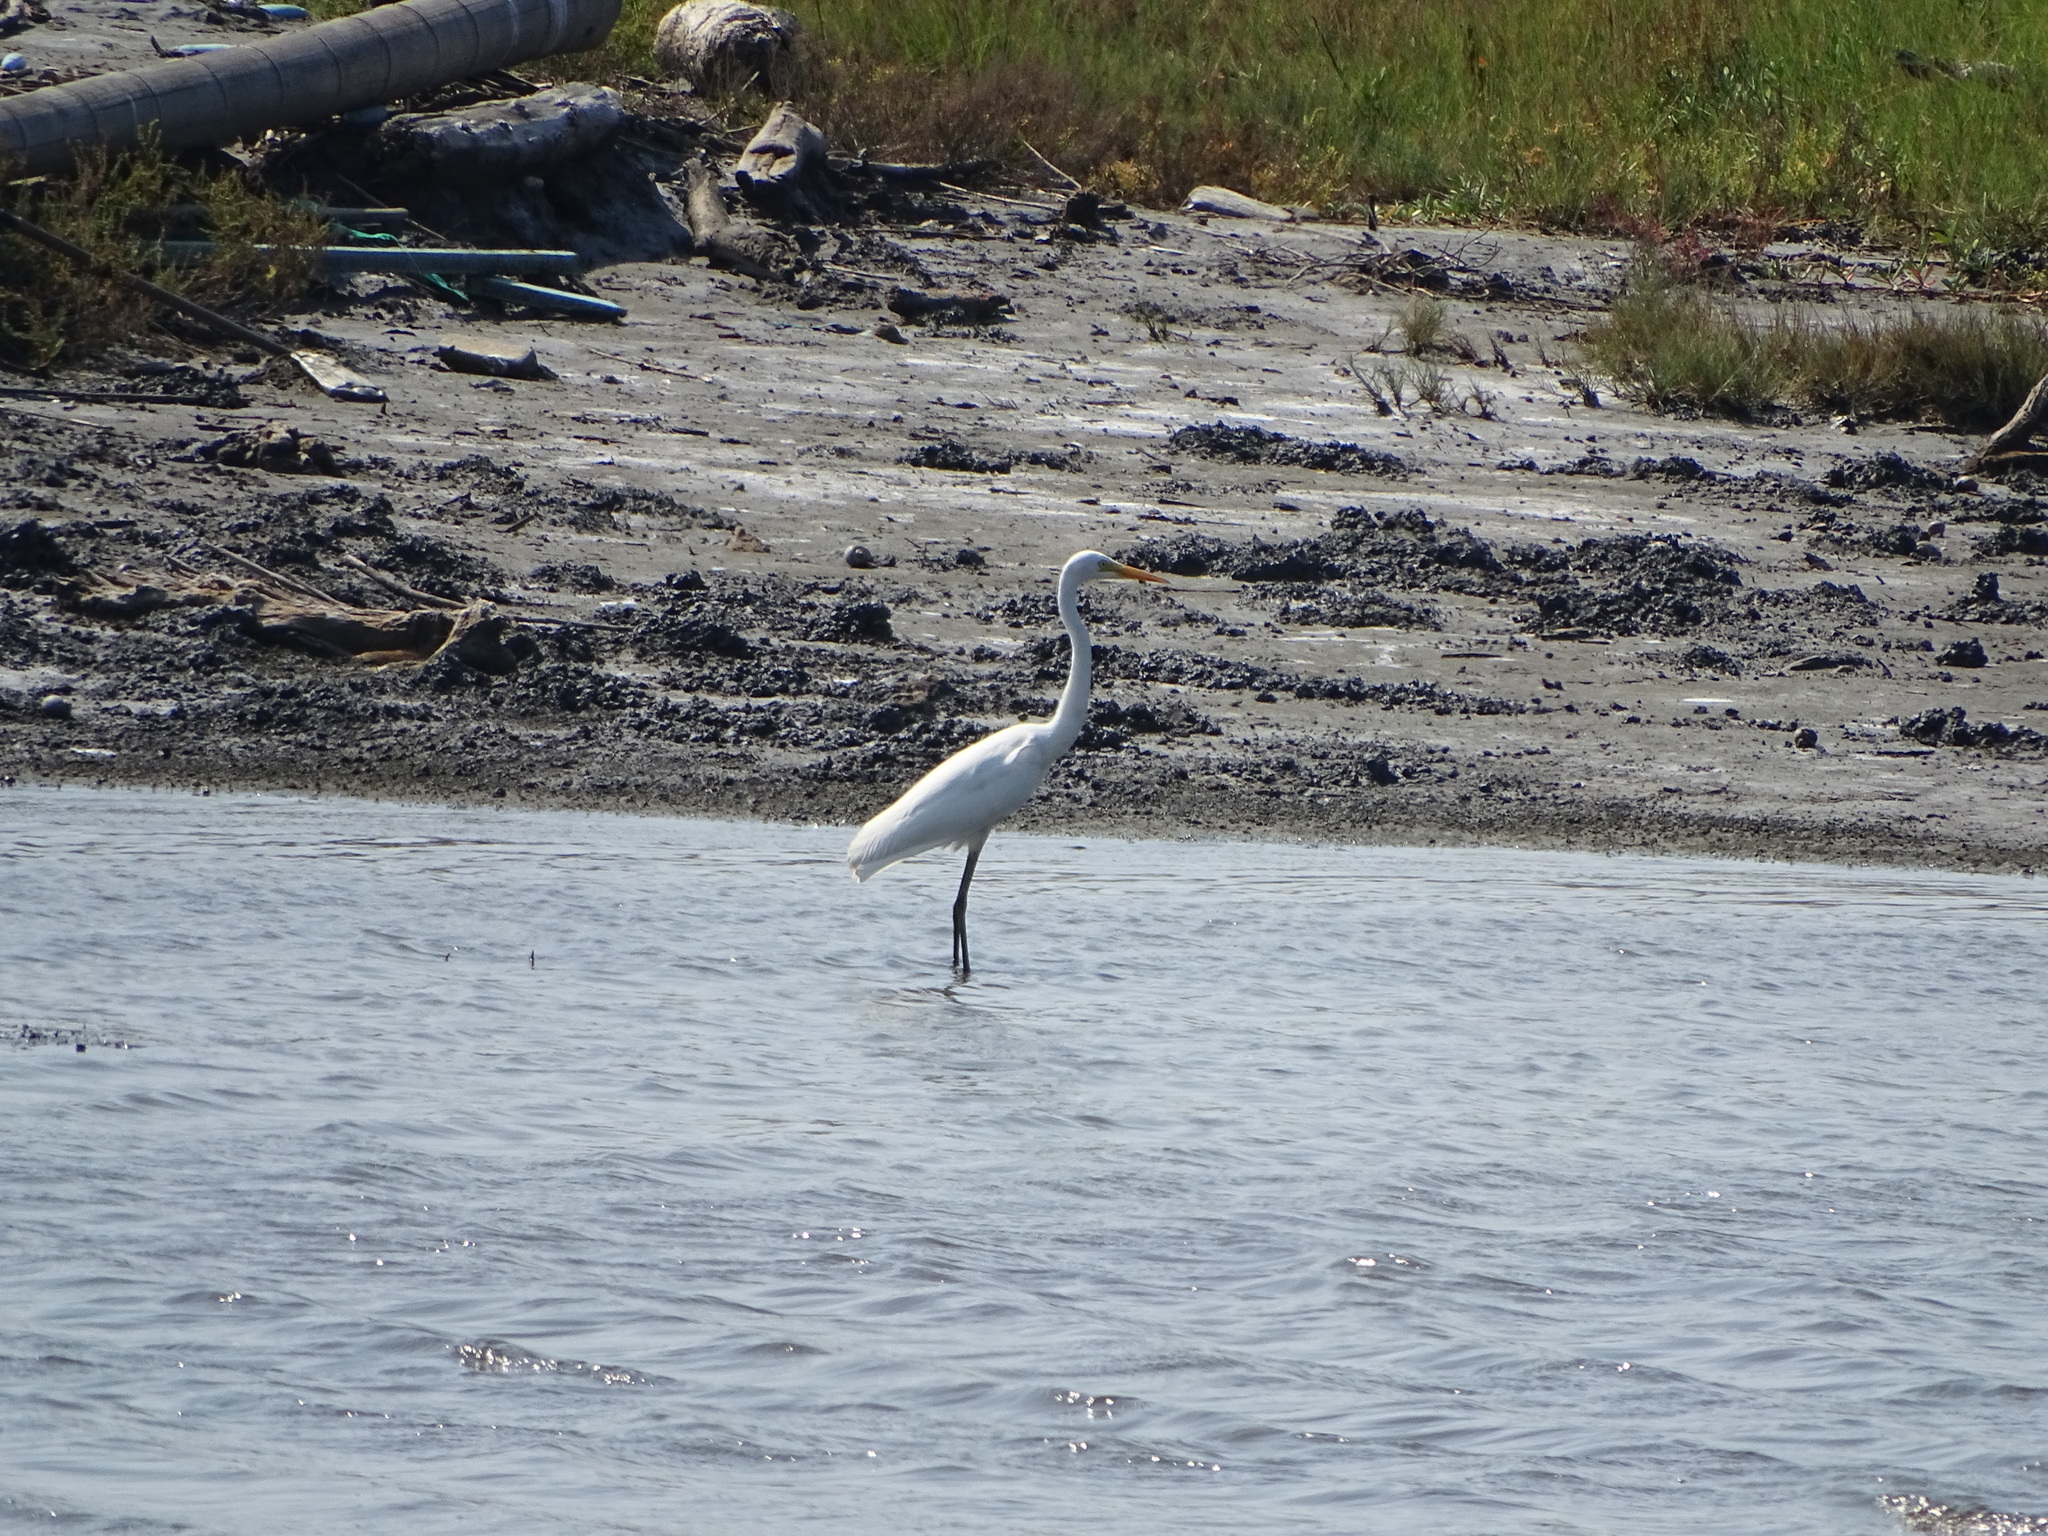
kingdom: Animalia
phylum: Chordata
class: Aves
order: Pelecaniformes
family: Ardeidae
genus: Egretta
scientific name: Egretta intermedia
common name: Intermediate egret
